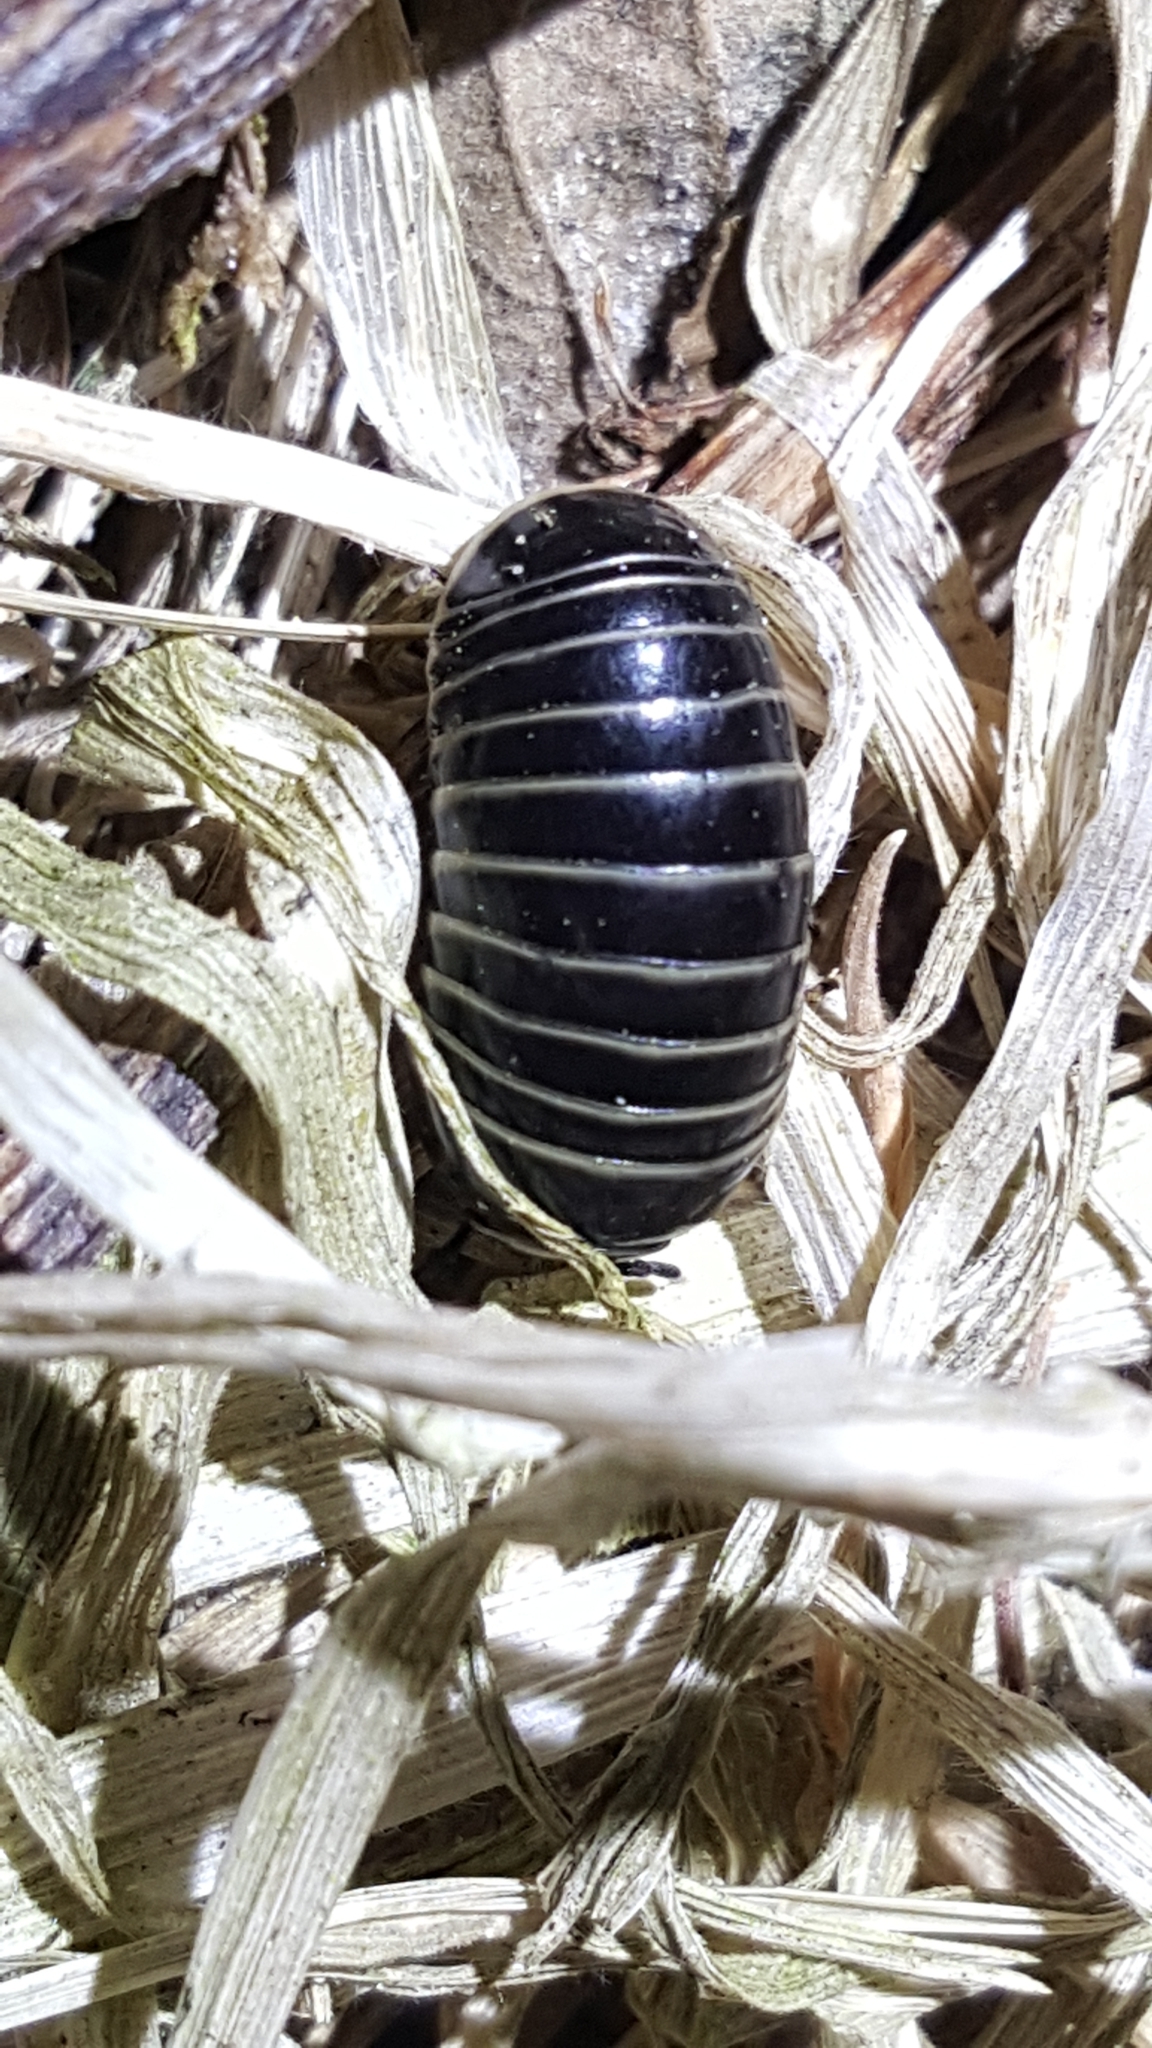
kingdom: Animalia
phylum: Arthropoda
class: Diplopoda
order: Glomerida
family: Glomeridae
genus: Glomeris
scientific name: Glomeris marginata
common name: Bordered pill millipede
